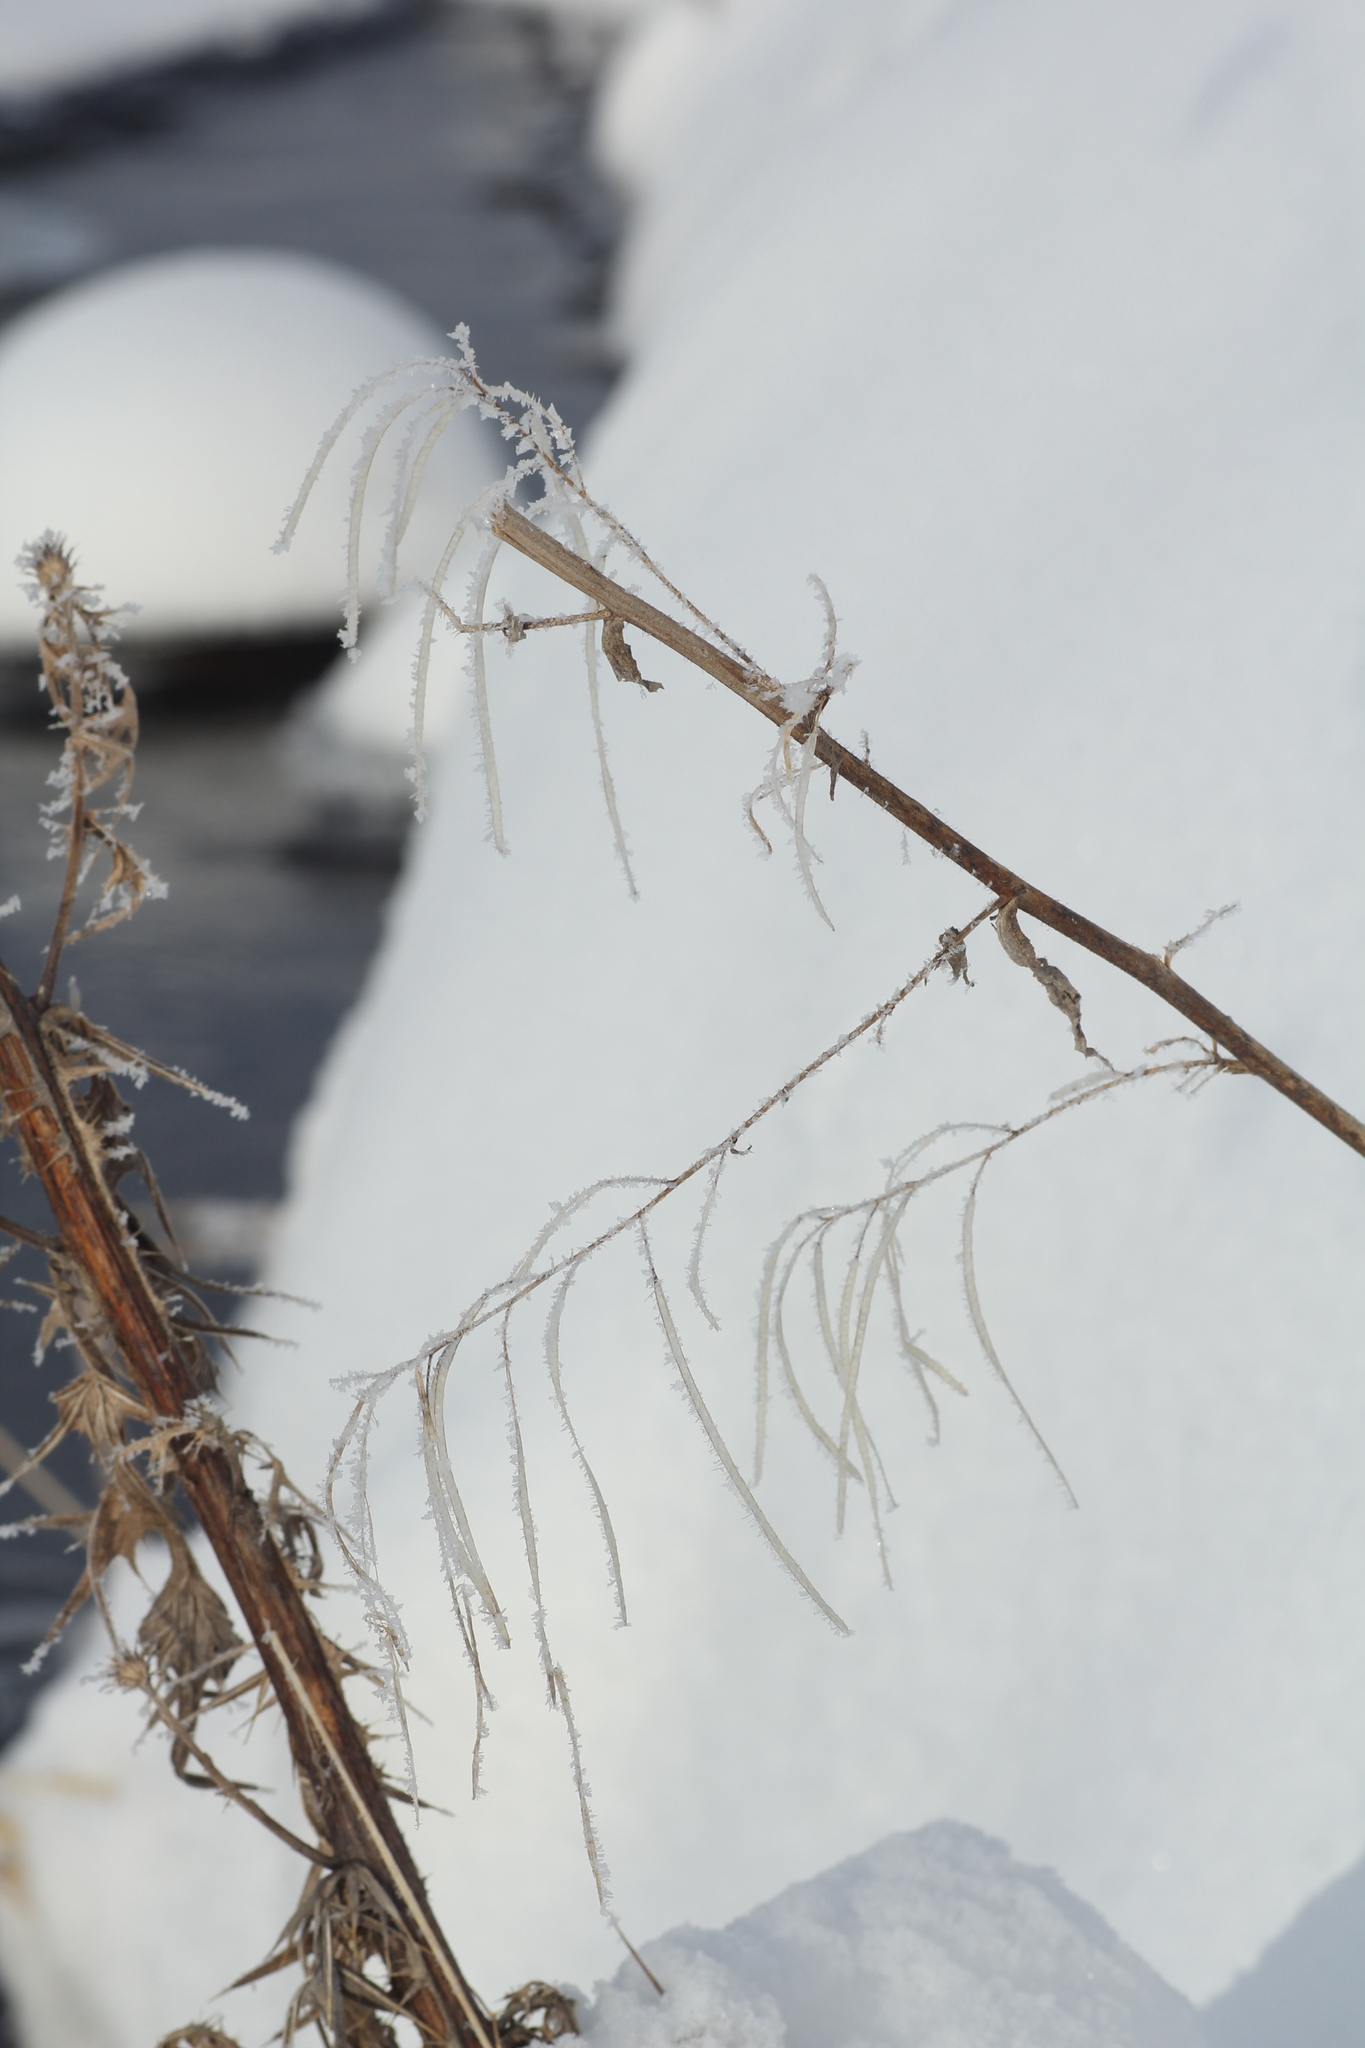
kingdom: Plantae
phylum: Tracheophyta
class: Magnoliopsida
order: Brassicales
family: Brassicaceae
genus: Catolobus
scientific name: Catolobus pendulus
